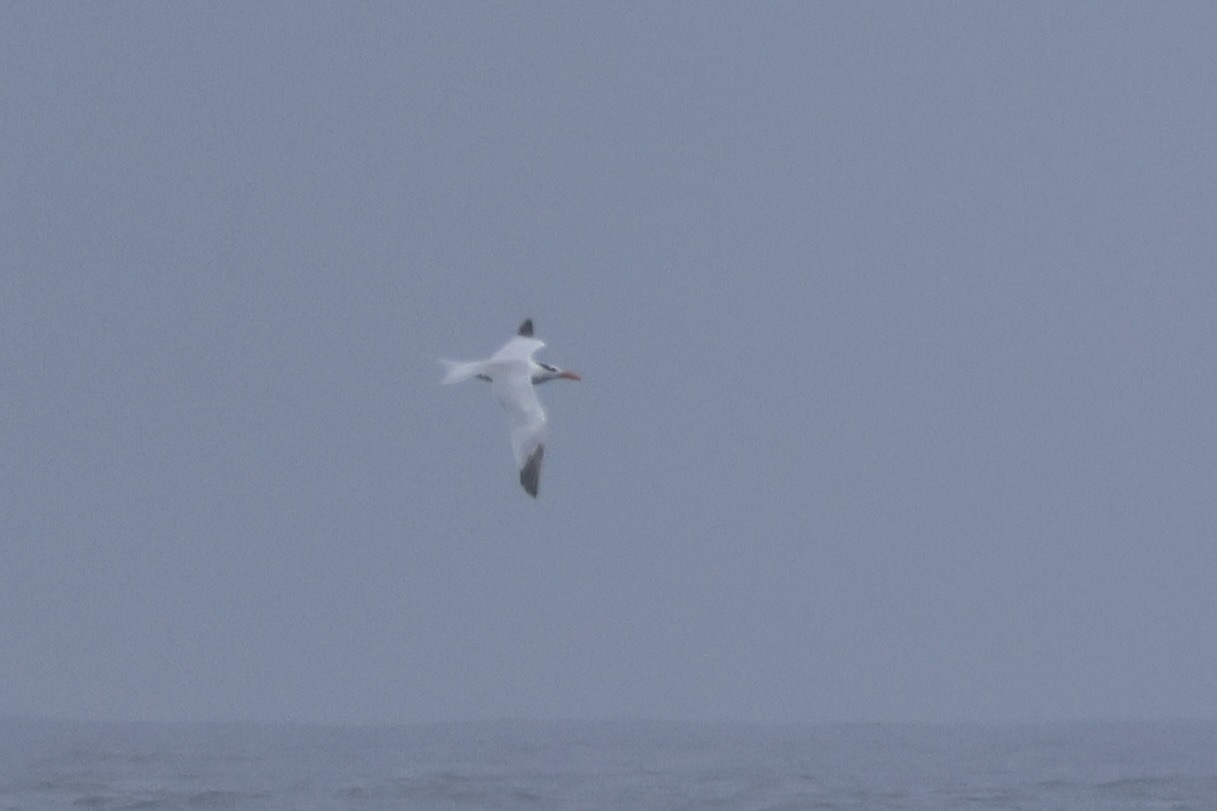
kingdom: Animalia
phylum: Chordata
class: Aves
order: Charadriiformes
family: Laridae
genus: Thalasseus
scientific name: Thalasseus maximus
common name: Royal tern
